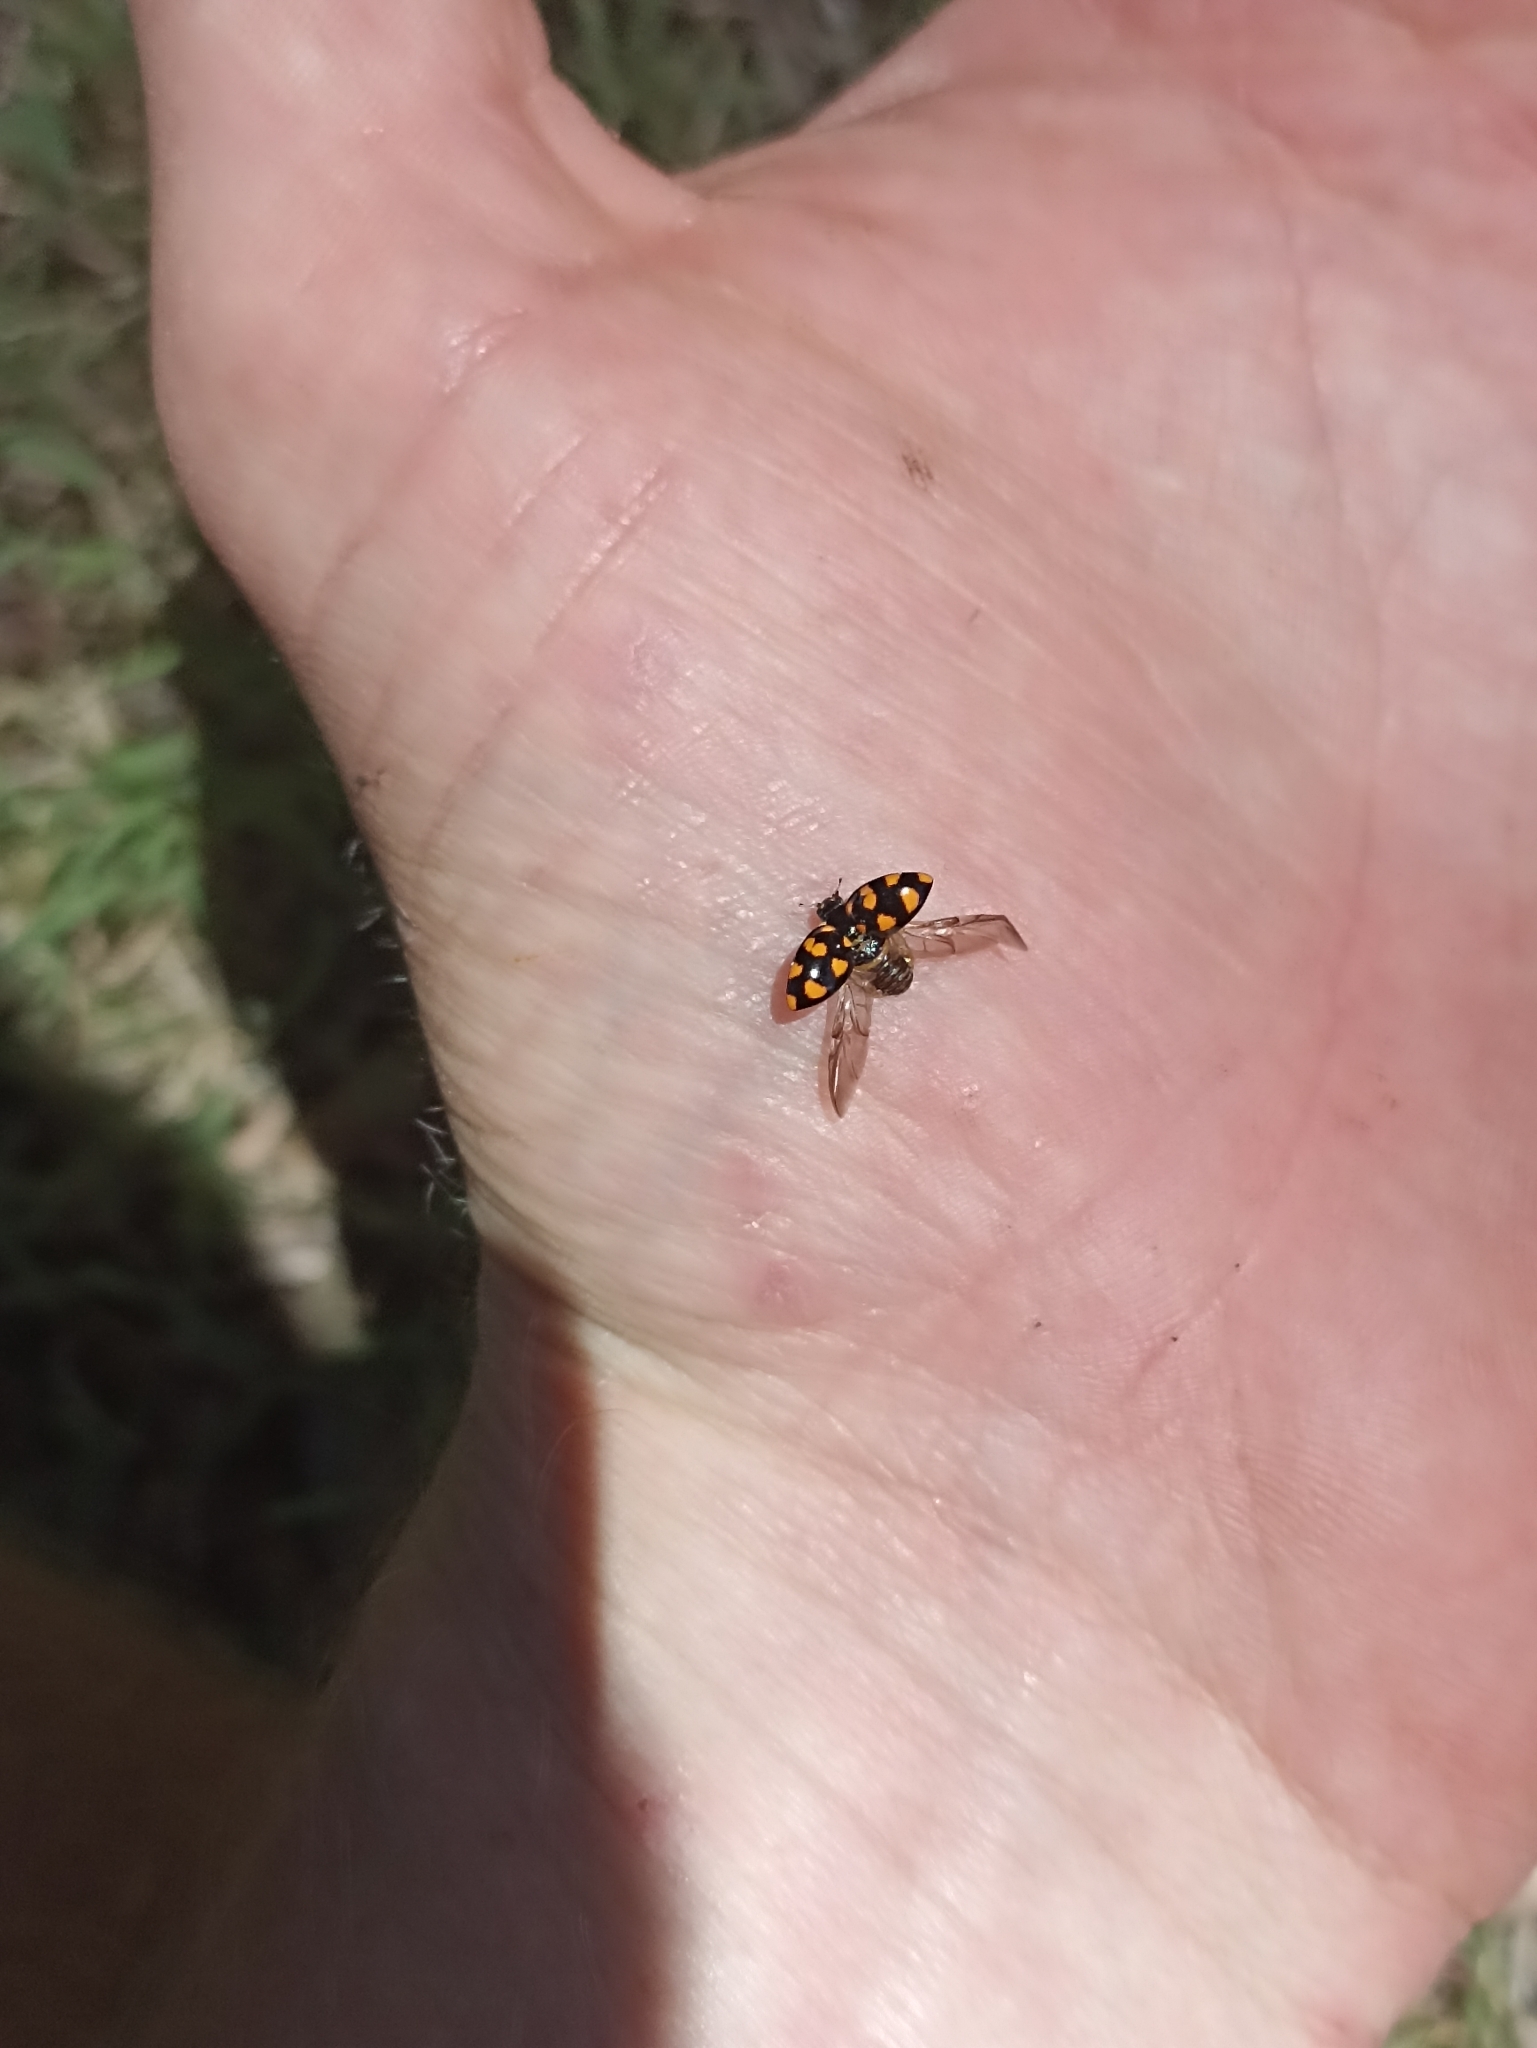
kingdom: Animalia
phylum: Arthropoda
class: Insecta
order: Coleoptera
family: Coccinellidae
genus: Coccinella
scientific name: Coccinella leonina
